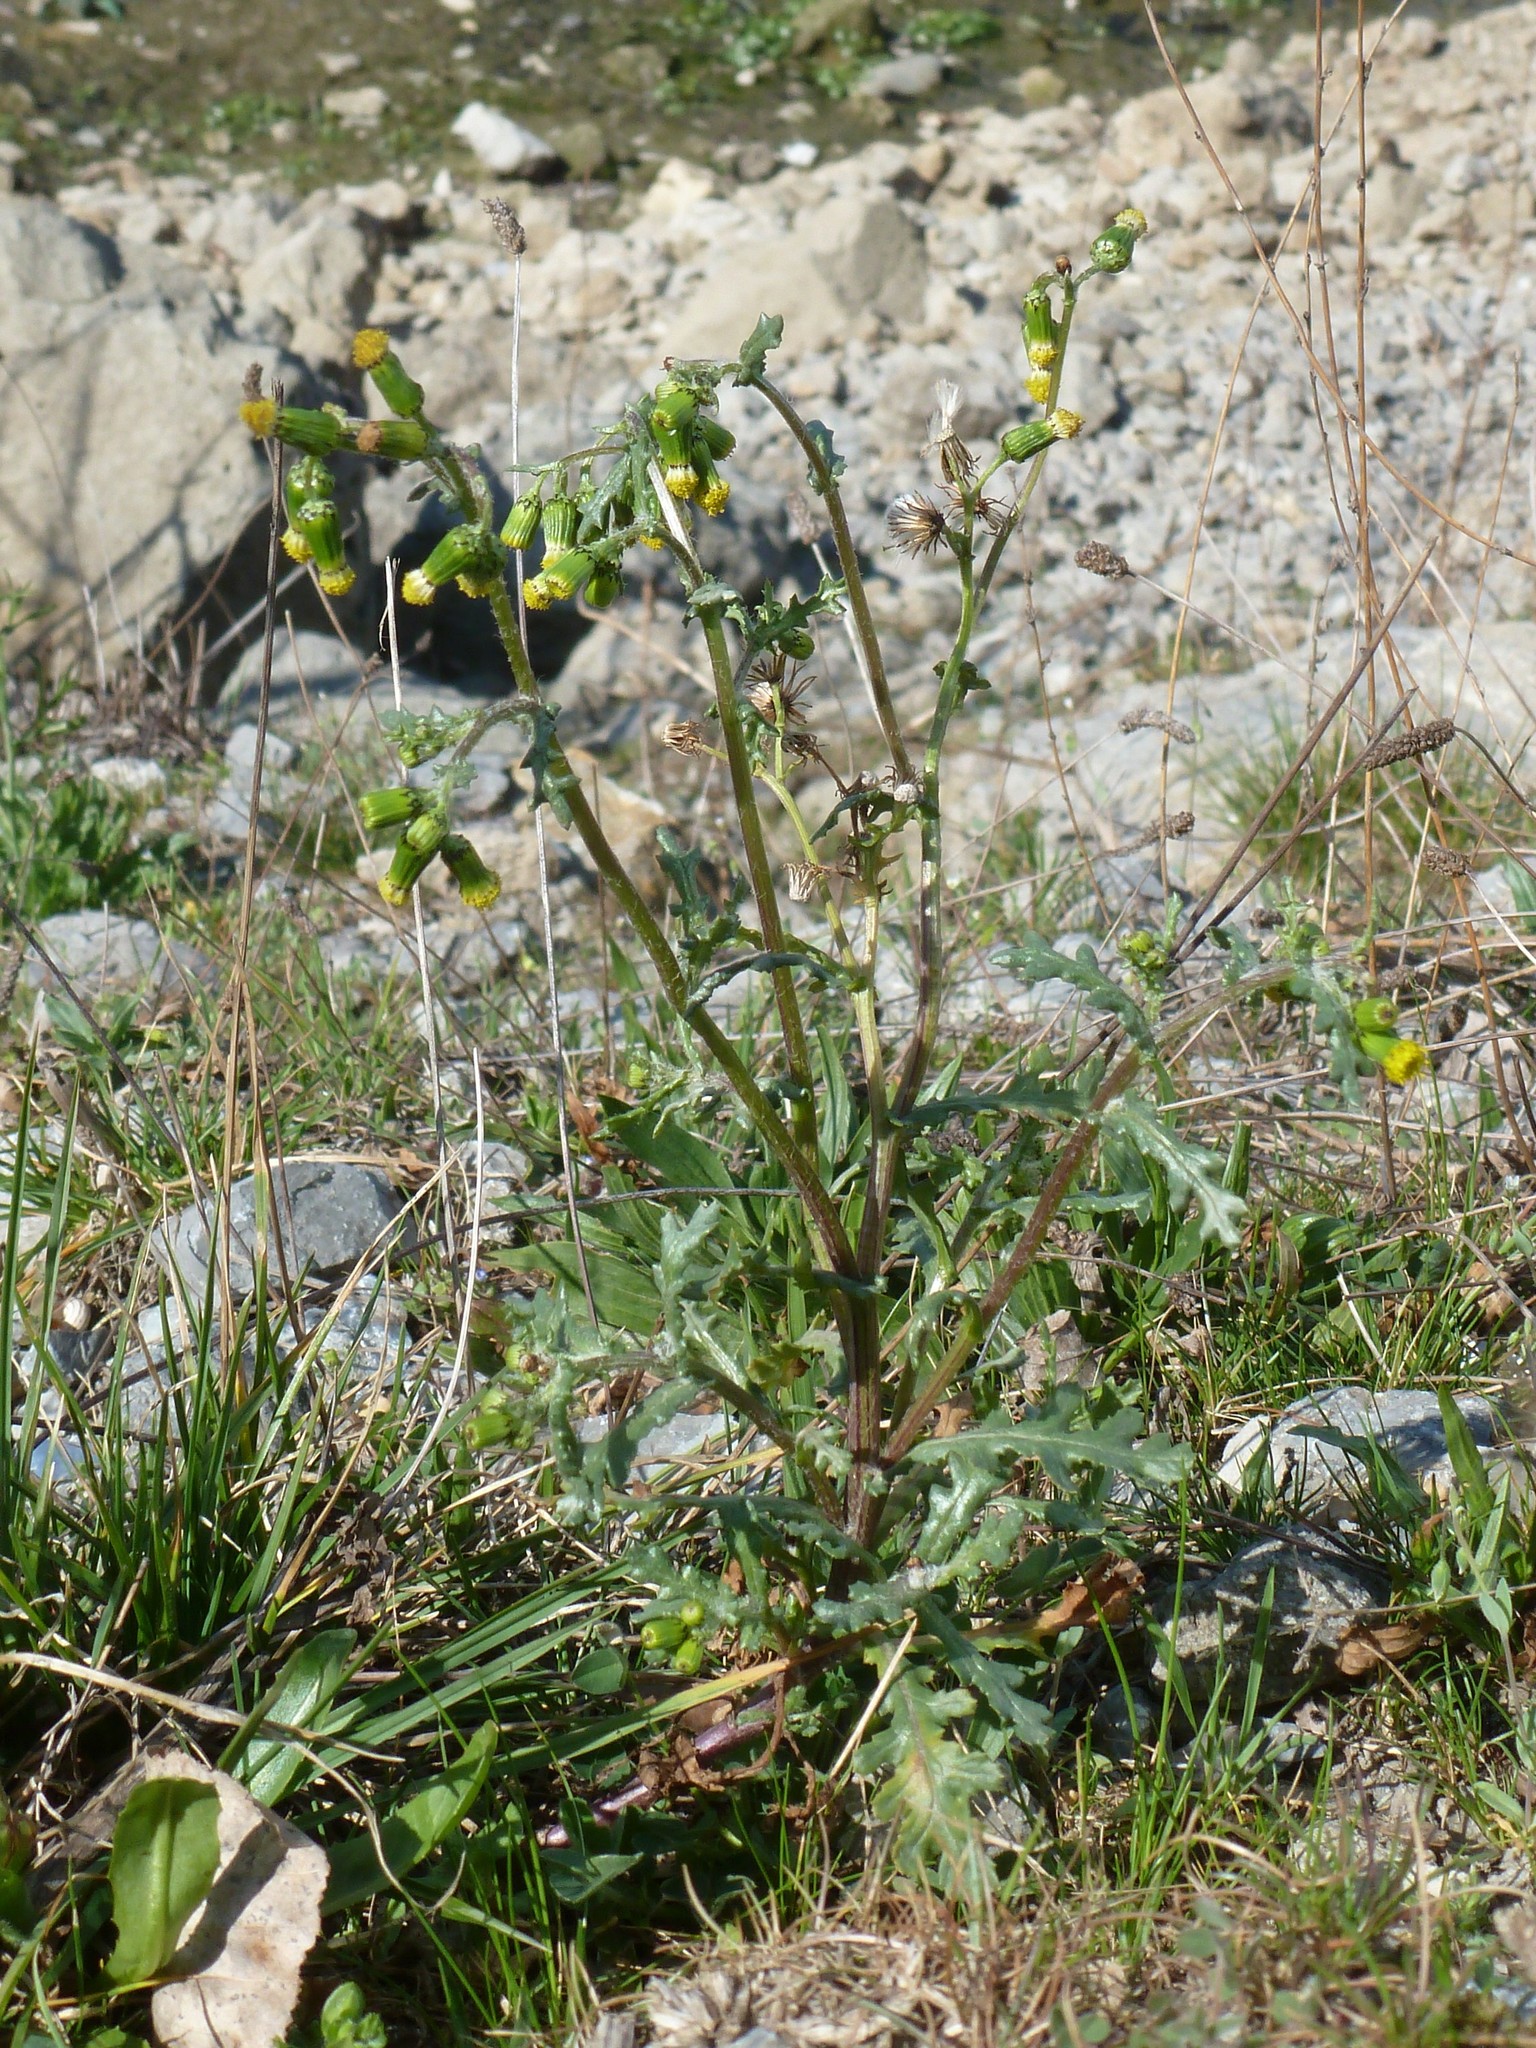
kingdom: Plantae
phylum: Tracheophyta
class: Magnoliopsida
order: Asterales
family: Asteraceae
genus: Senecio
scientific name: Senecio vulgaris
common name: Old-man-in-the-spring
